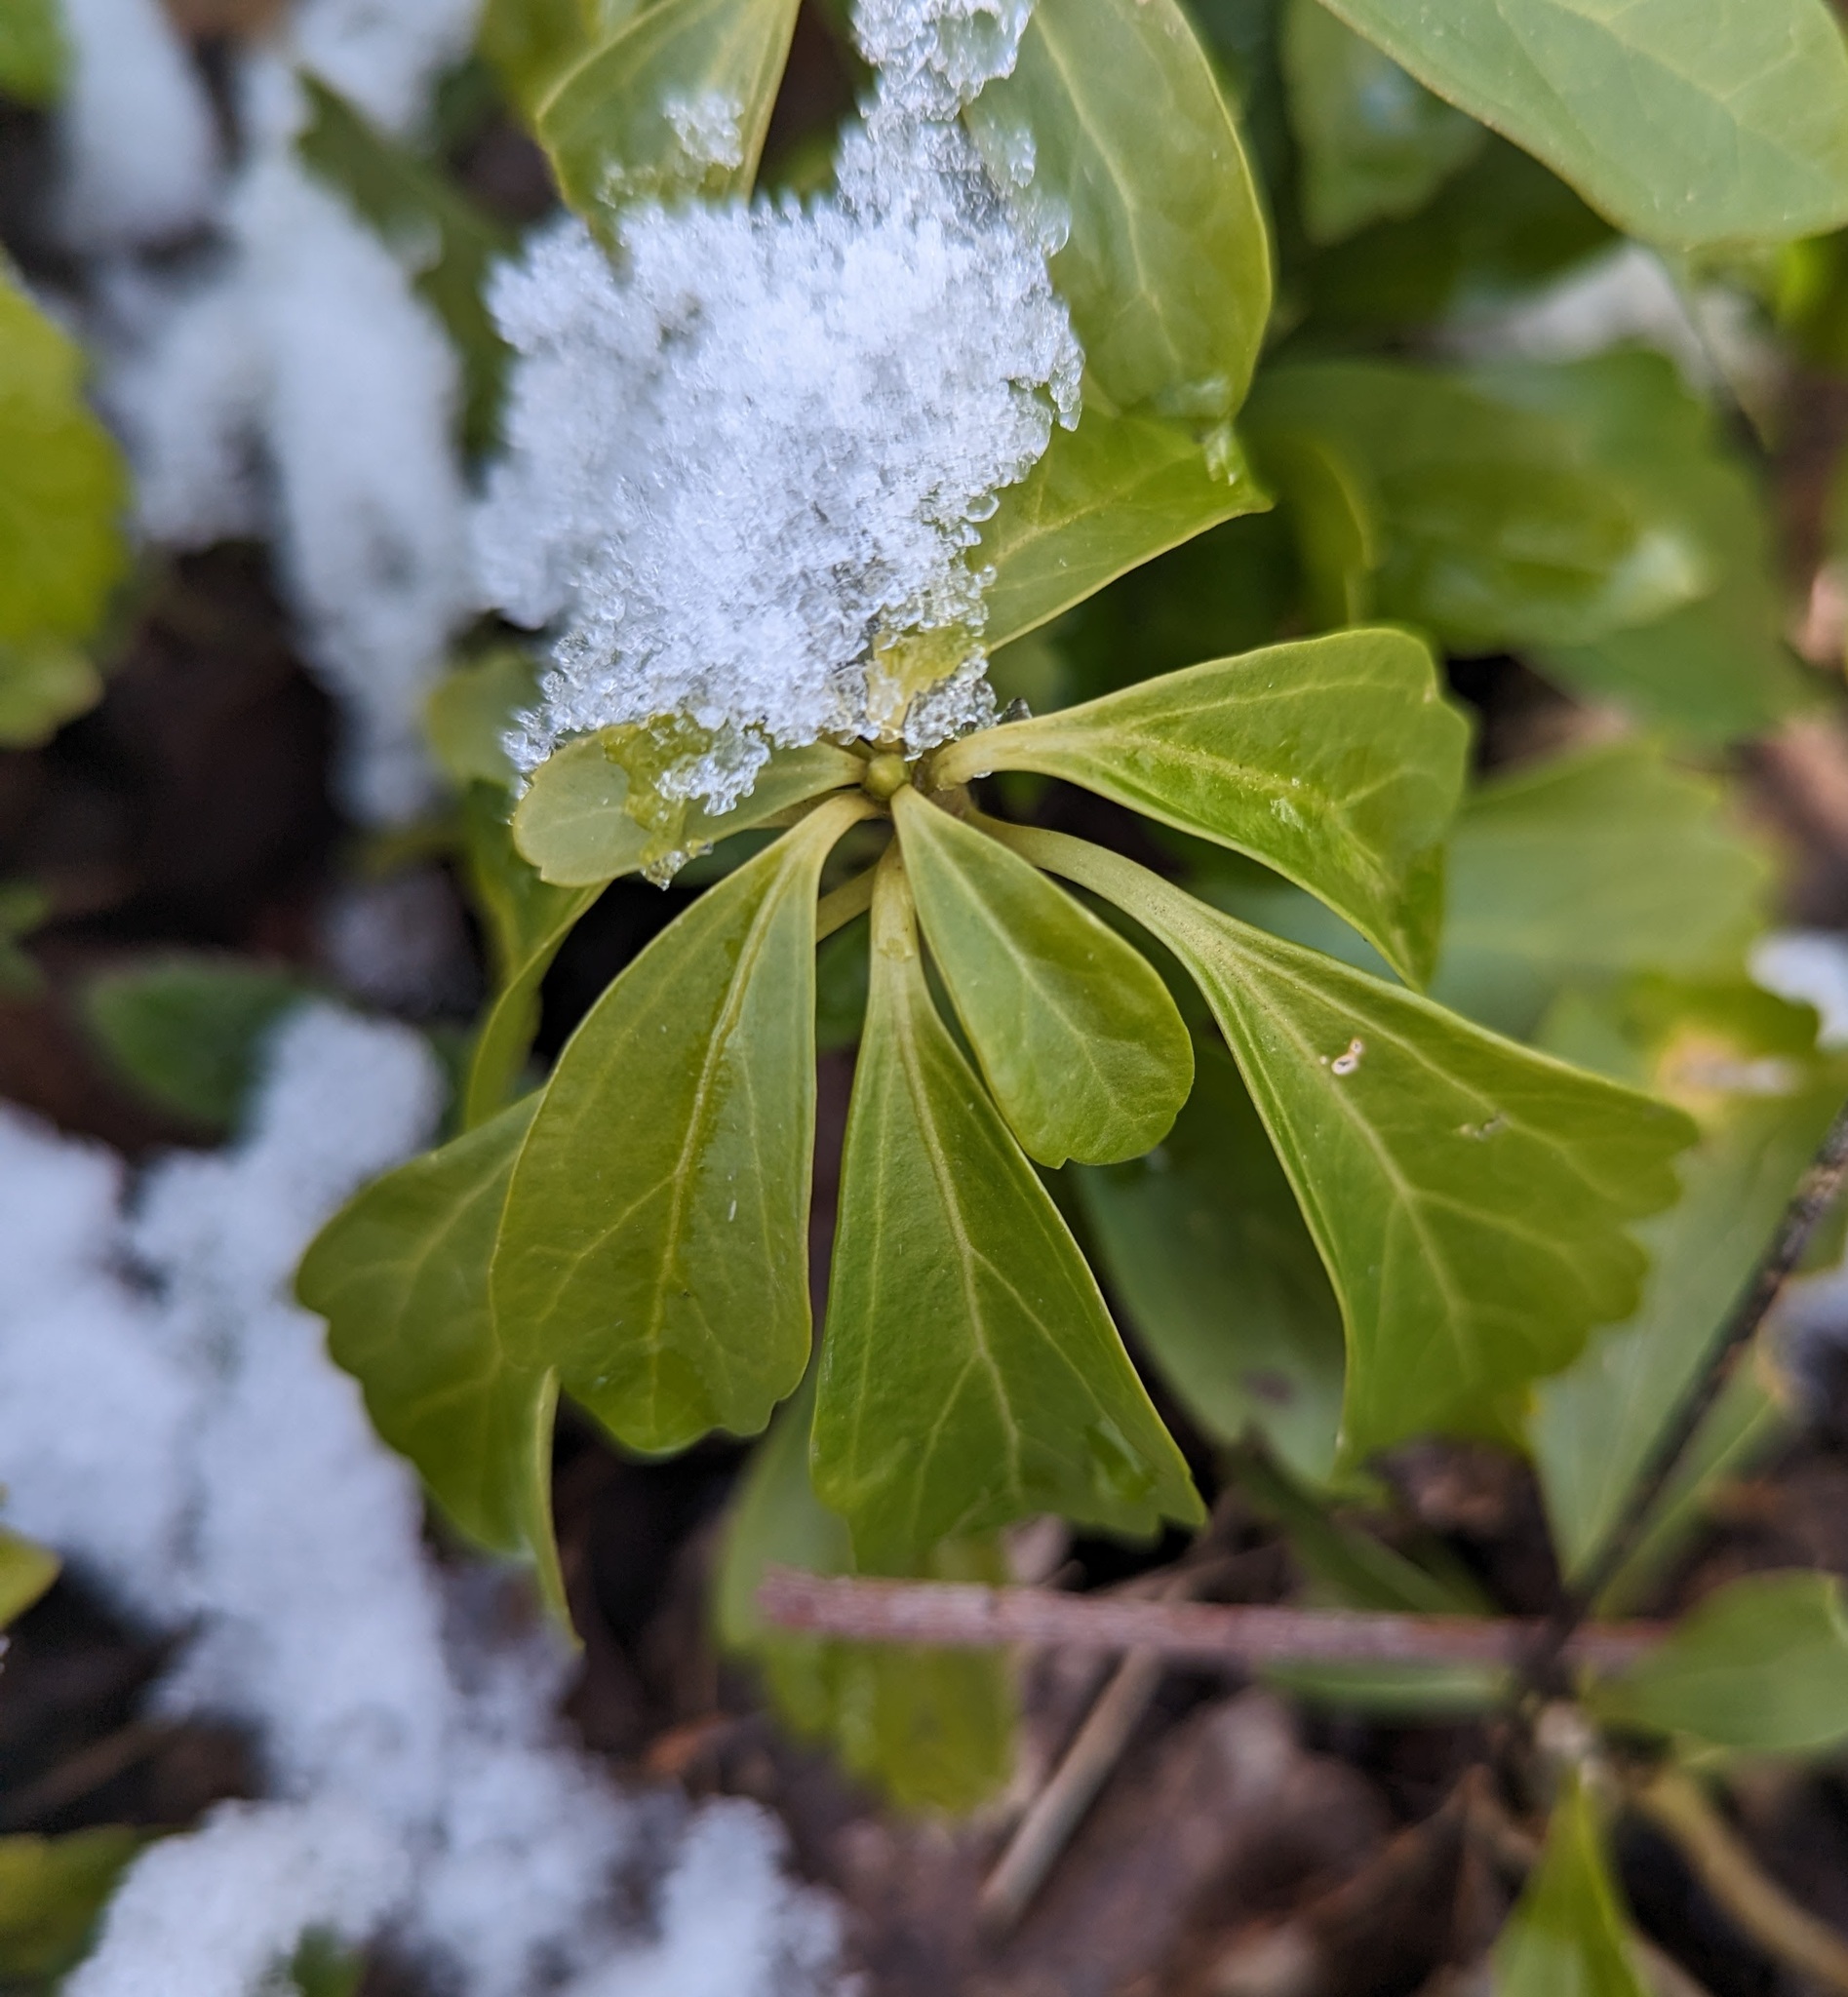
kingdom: Plantae
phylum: Tracheophyta
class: Magnoliopsida
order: Buxales
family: Buxaceae
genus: Pachysandra
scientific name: Pachysandra terminalis
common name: Japanese pachysandra
